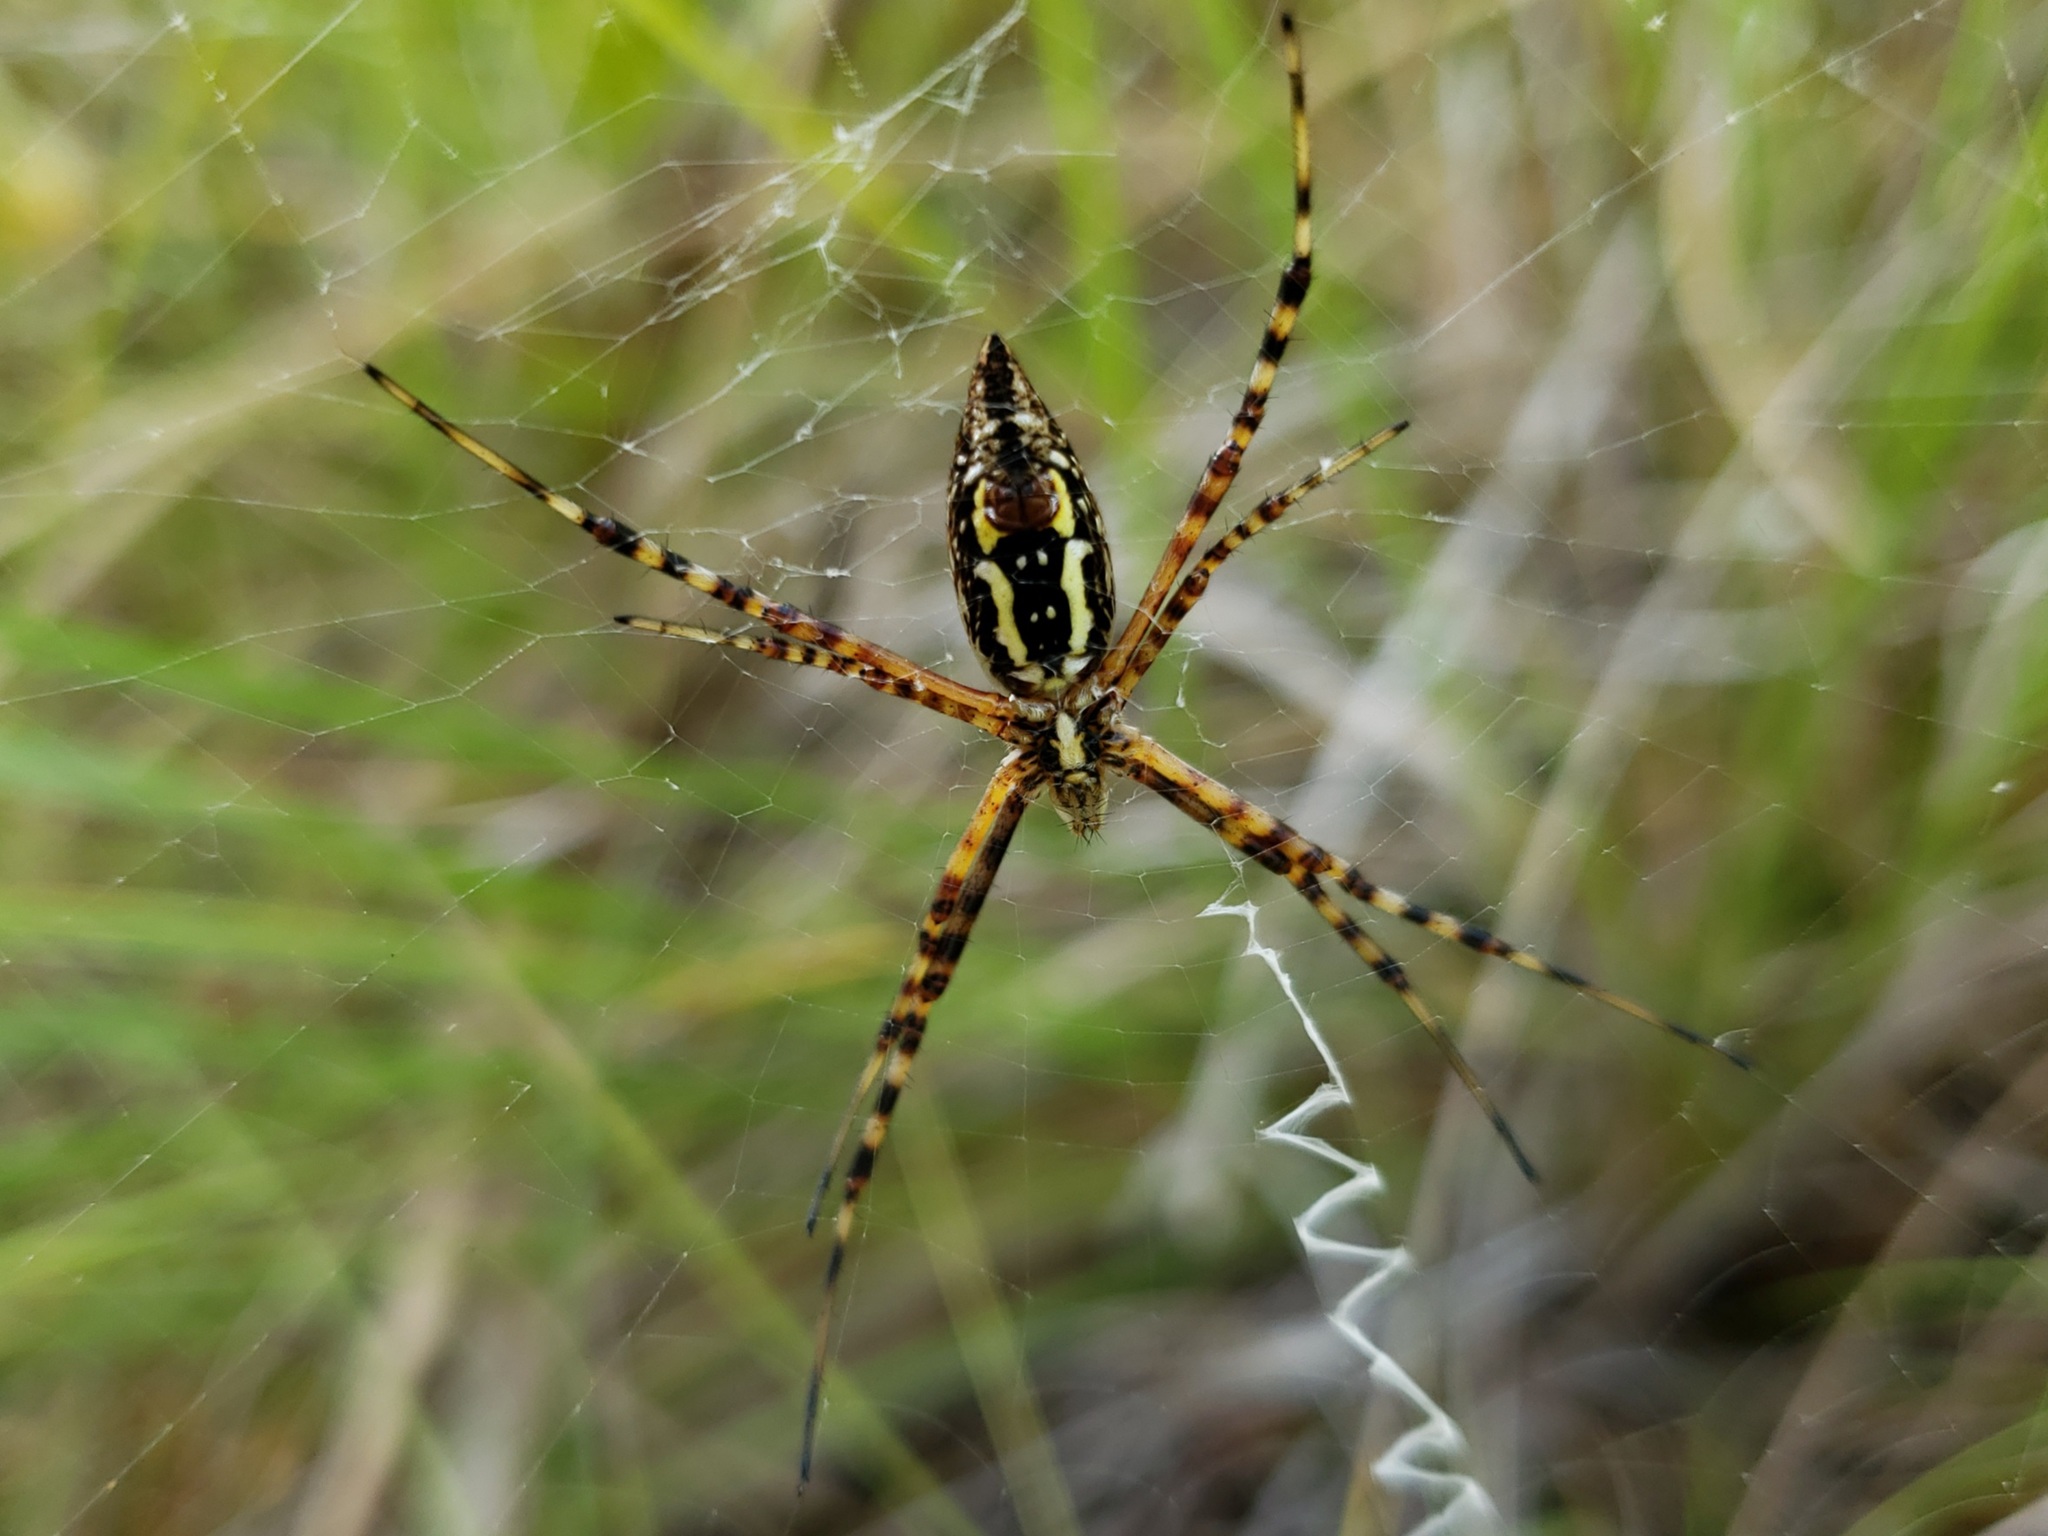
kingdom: Animalia
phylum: Arthropoda
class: Arachnida
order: Araneae
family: Araneidae
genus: Argiope
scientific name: Argiope trifasciata
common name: Banded garden spider
